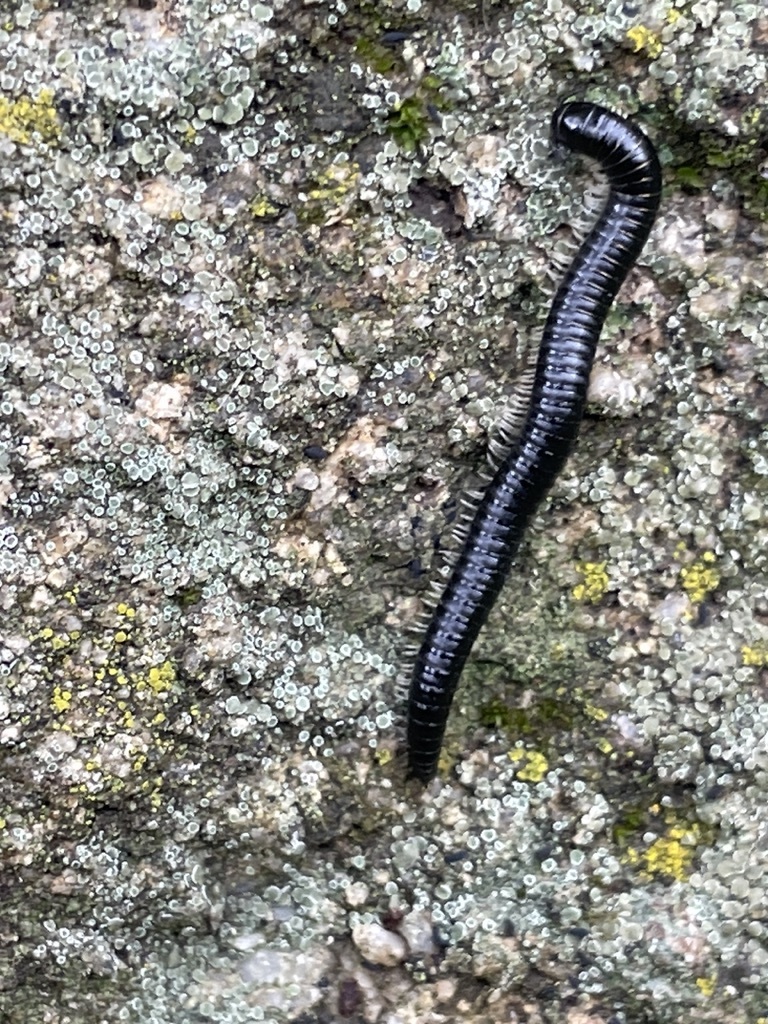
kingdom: Animalia
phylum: Arthropoda
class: Diplopoda
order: Julida
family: Julidae
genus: Ommatoiulus
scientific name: Ommatoiulus moreleti
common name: Portuguese millipede
